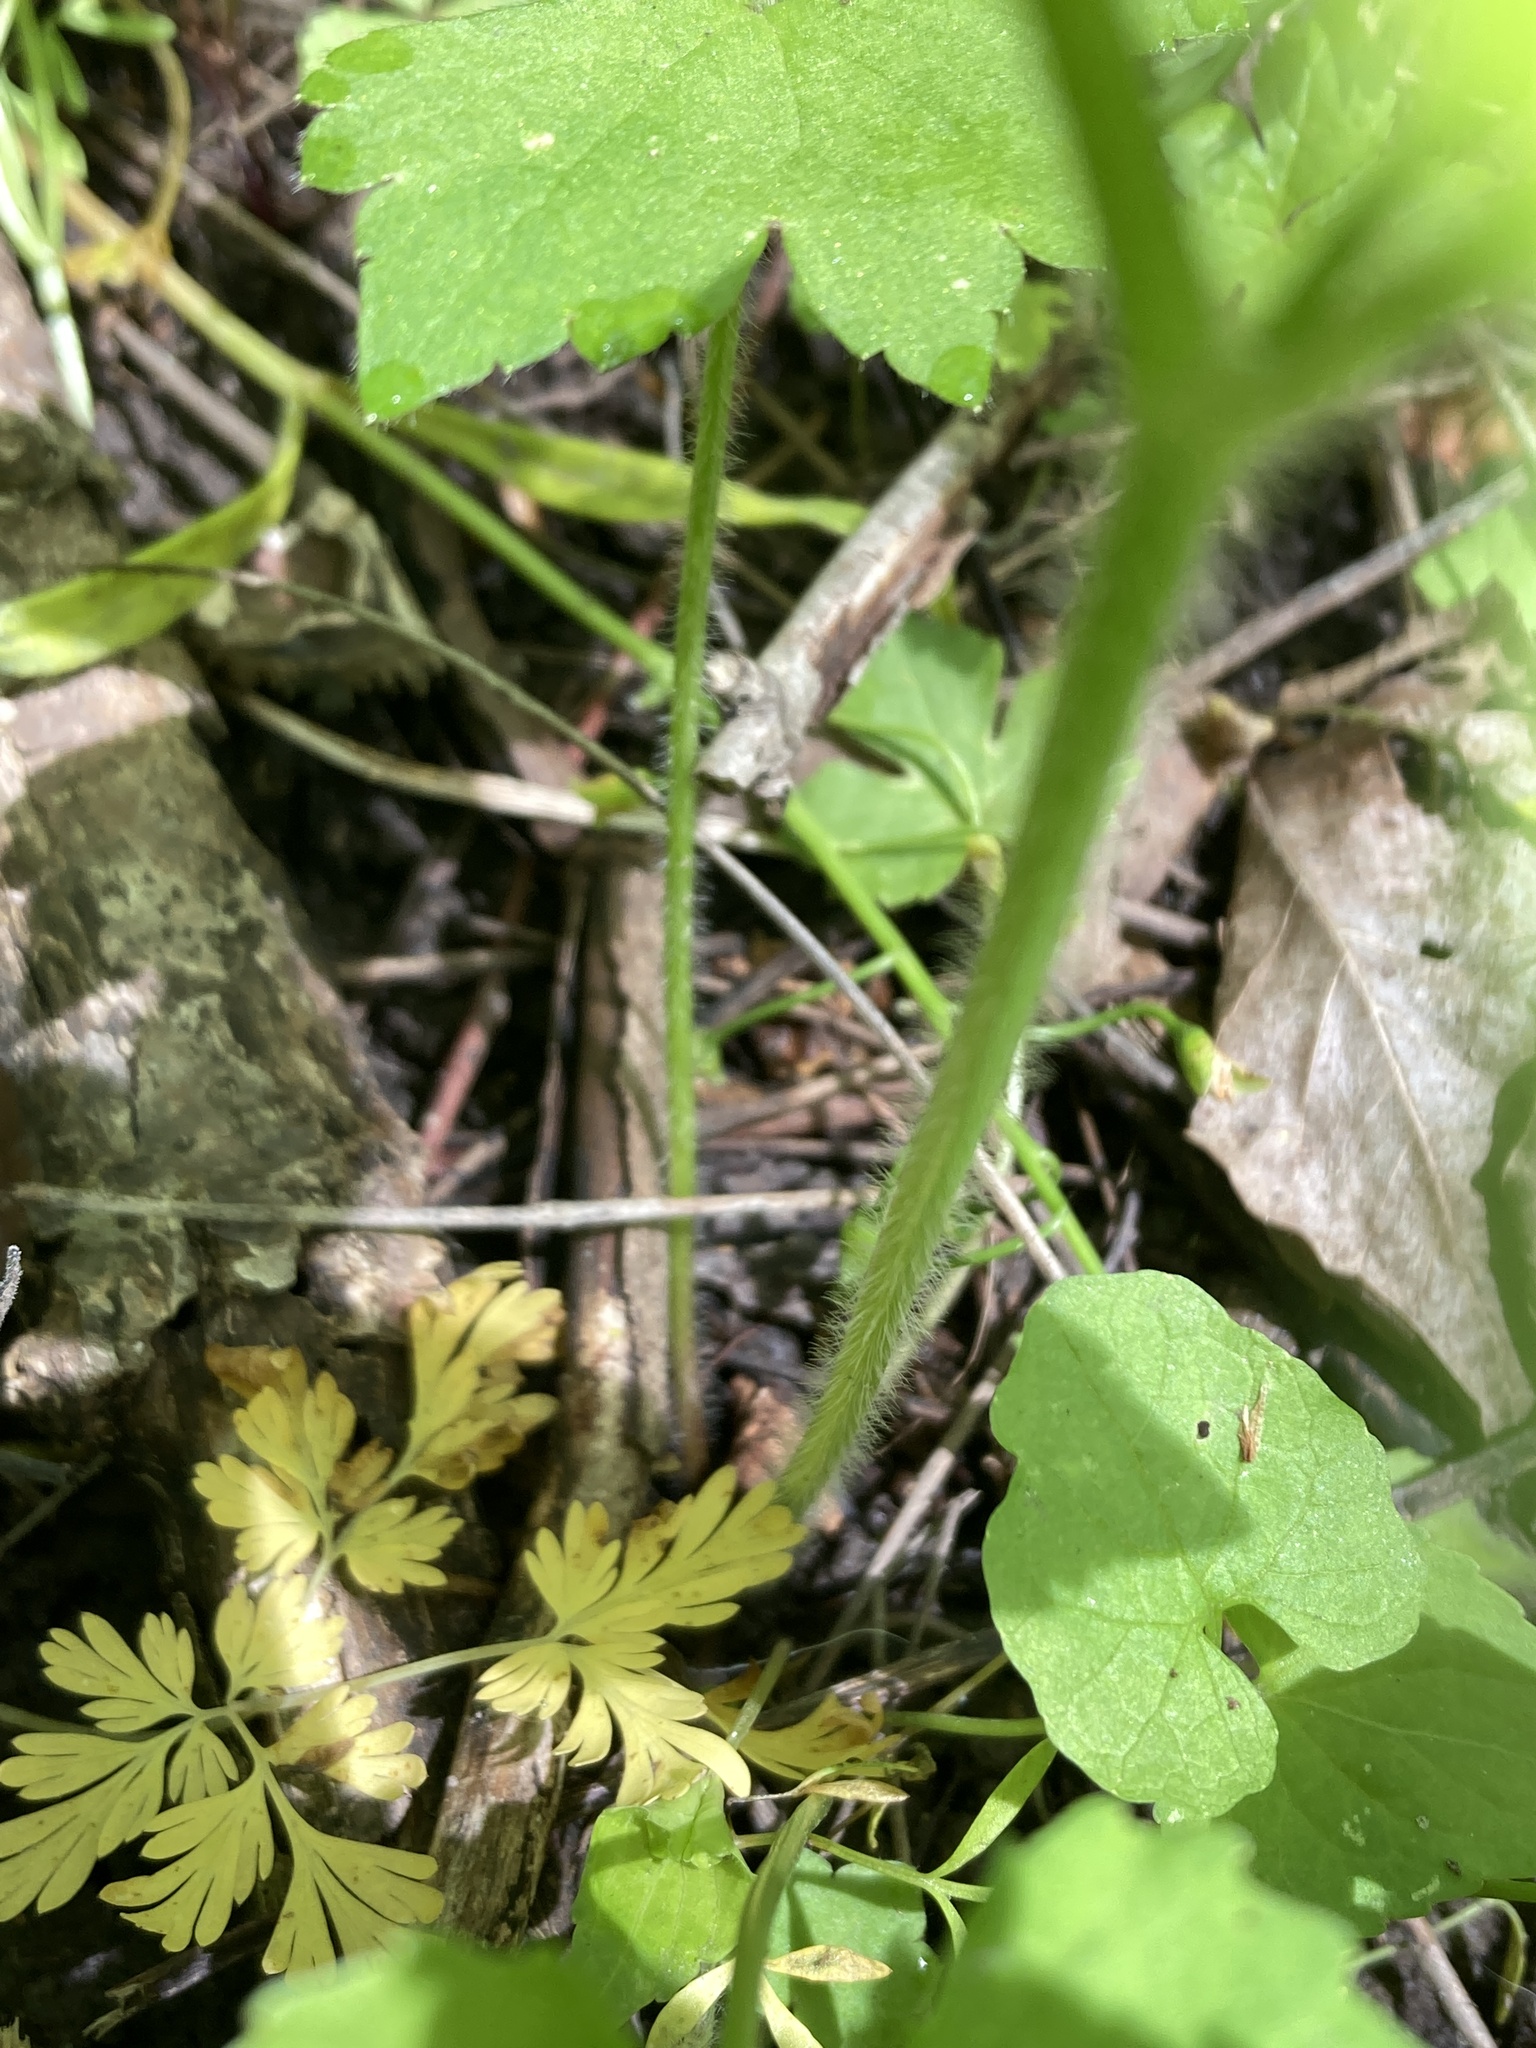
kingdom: Plantae
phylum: Tracheophyta
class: Magnoliopsida
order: Ranunculales
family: Ranunculaceae
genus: Ranunculus
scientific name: Ranunculus recurvatus
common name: Blisterwort
